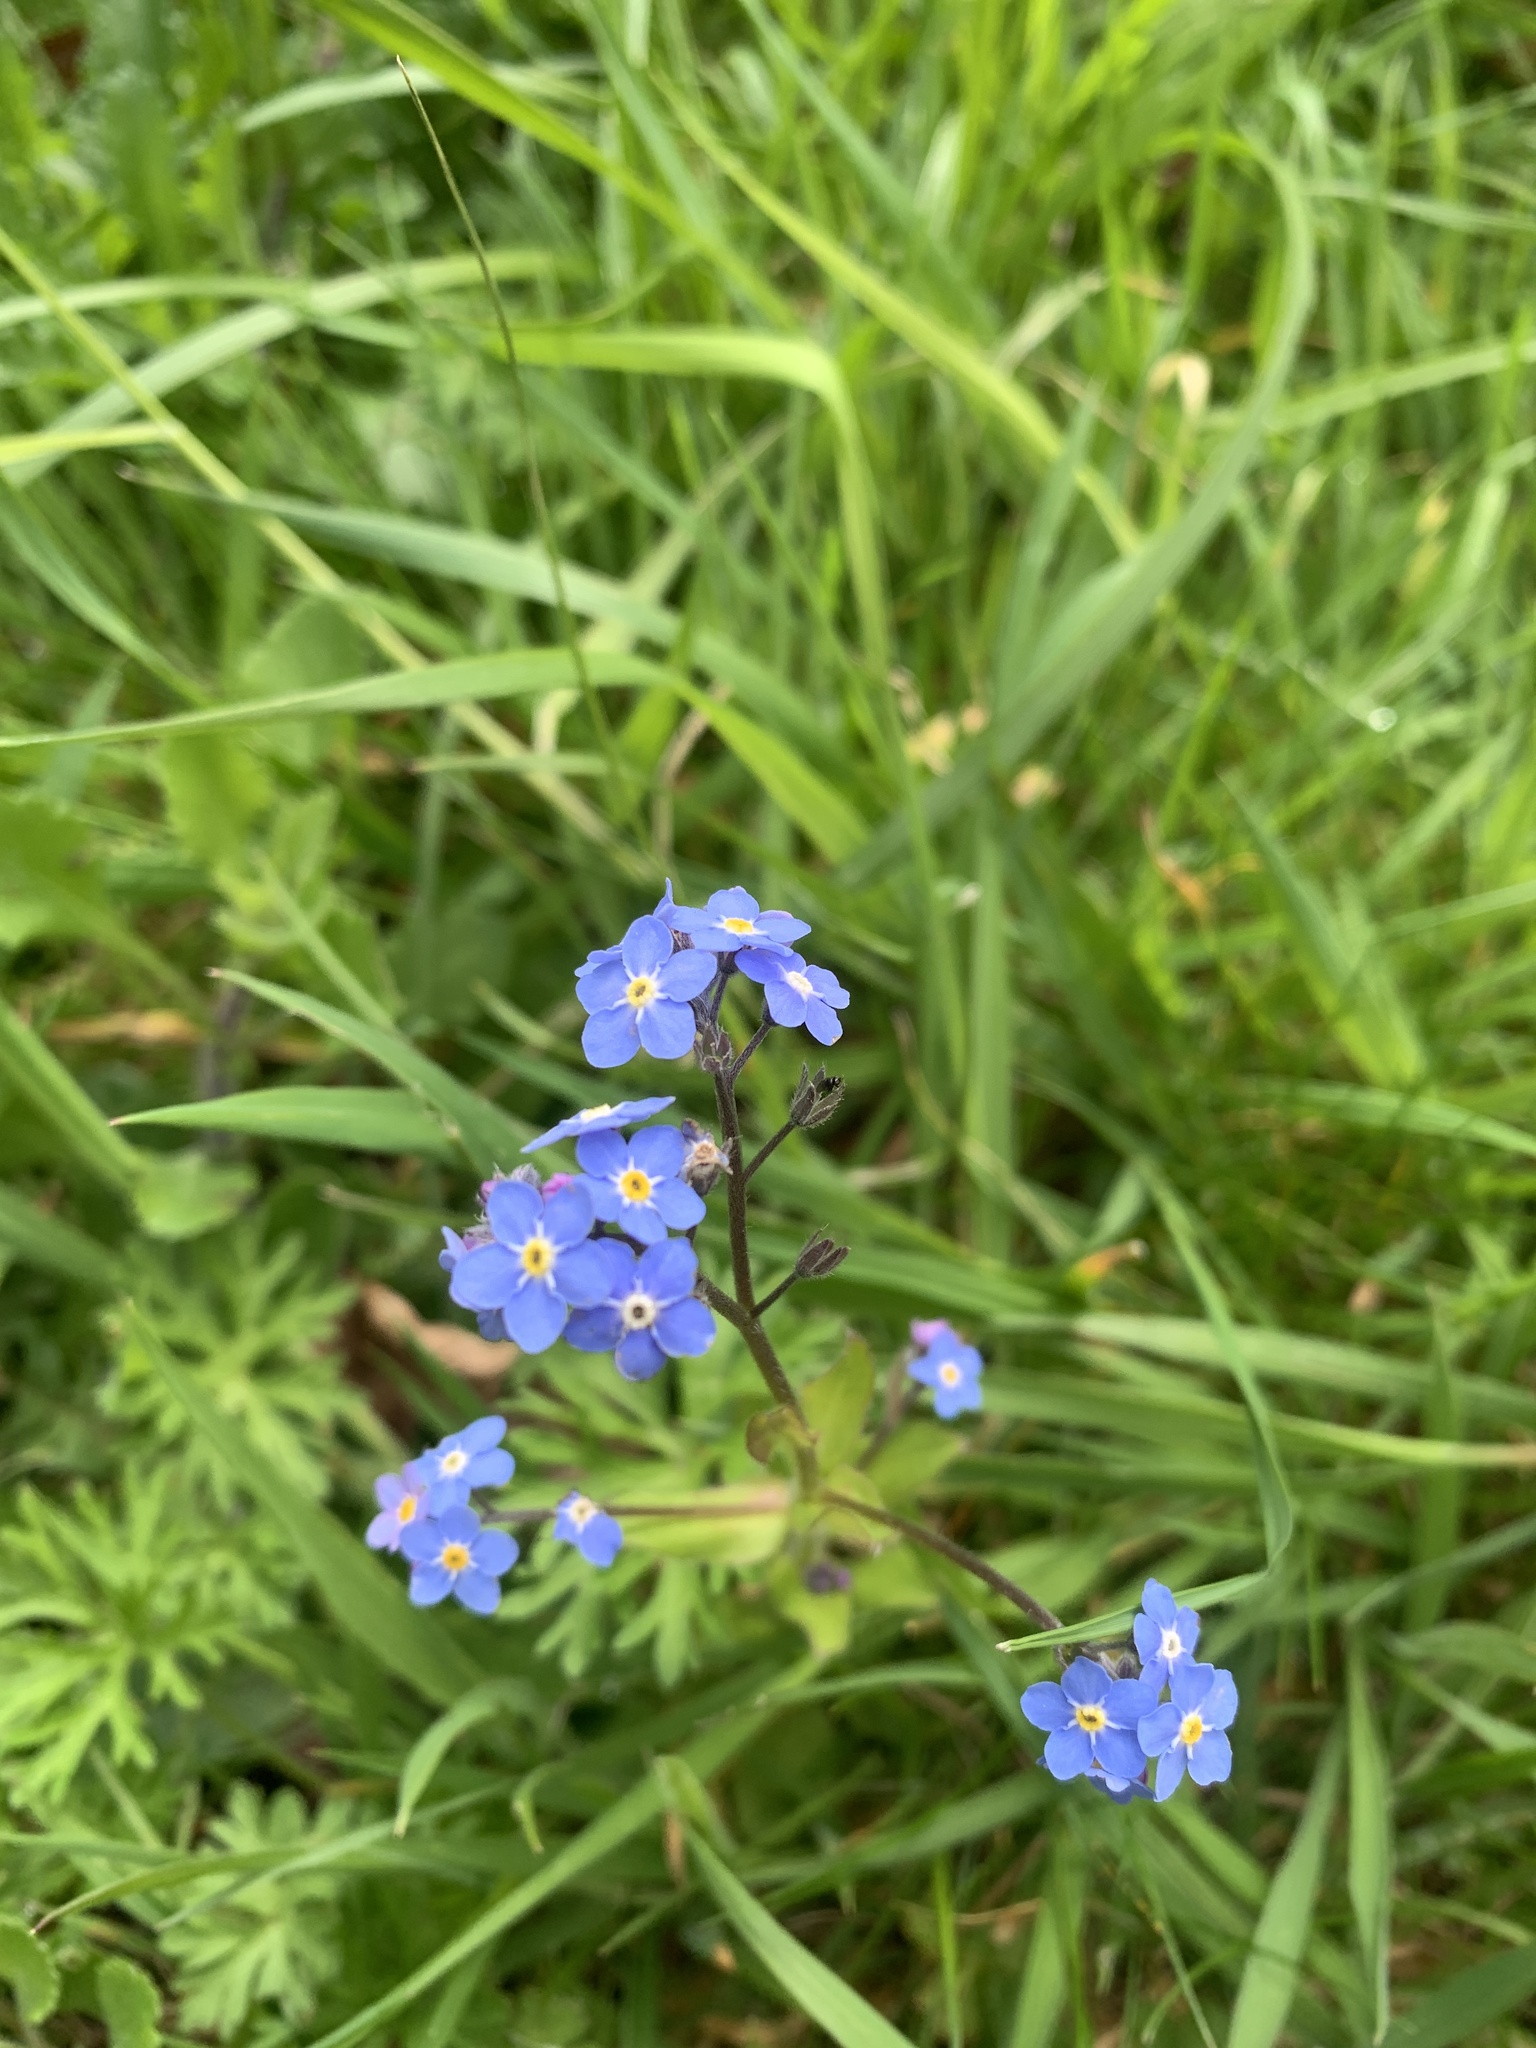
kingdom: Plantae
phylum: Tracheophyta
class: Magnoliopsida
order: Boraginales
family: Boraginaceae
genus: Myosotis
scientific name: Myosotis arvensis
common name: Field forget-me-not
